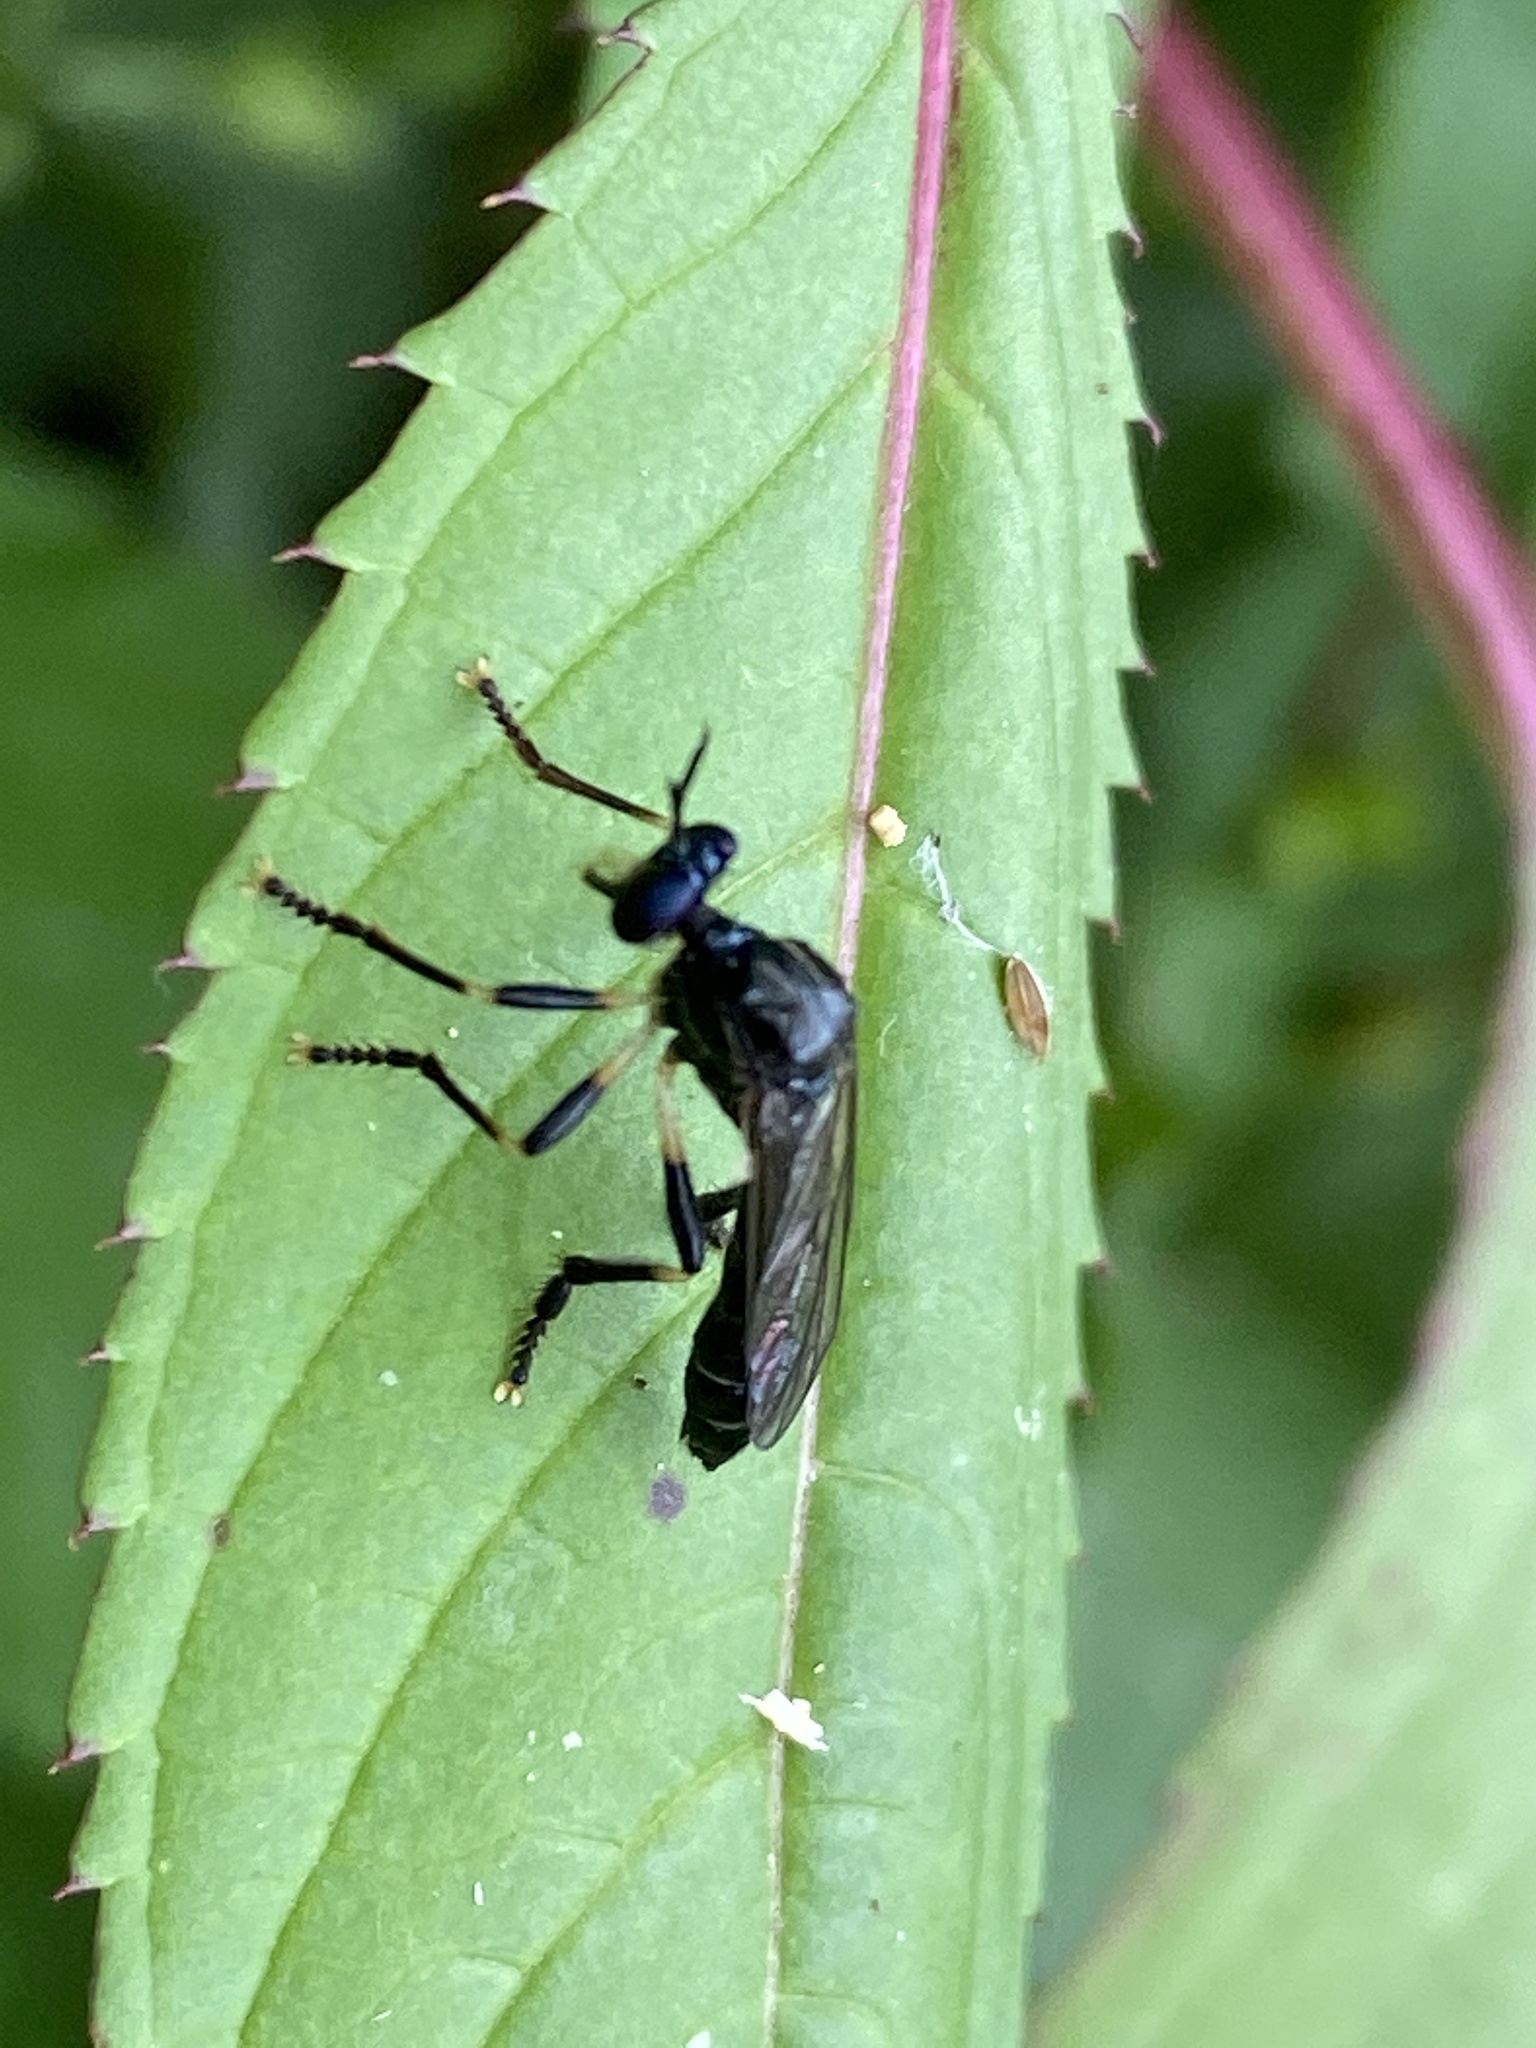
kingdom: Animalia
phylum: Arthropoda
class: Insecta
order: Diptera
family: Asilidae
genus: Dioctria
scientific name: Dioctria cothurnata
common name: Scarce red-legged robberfly
